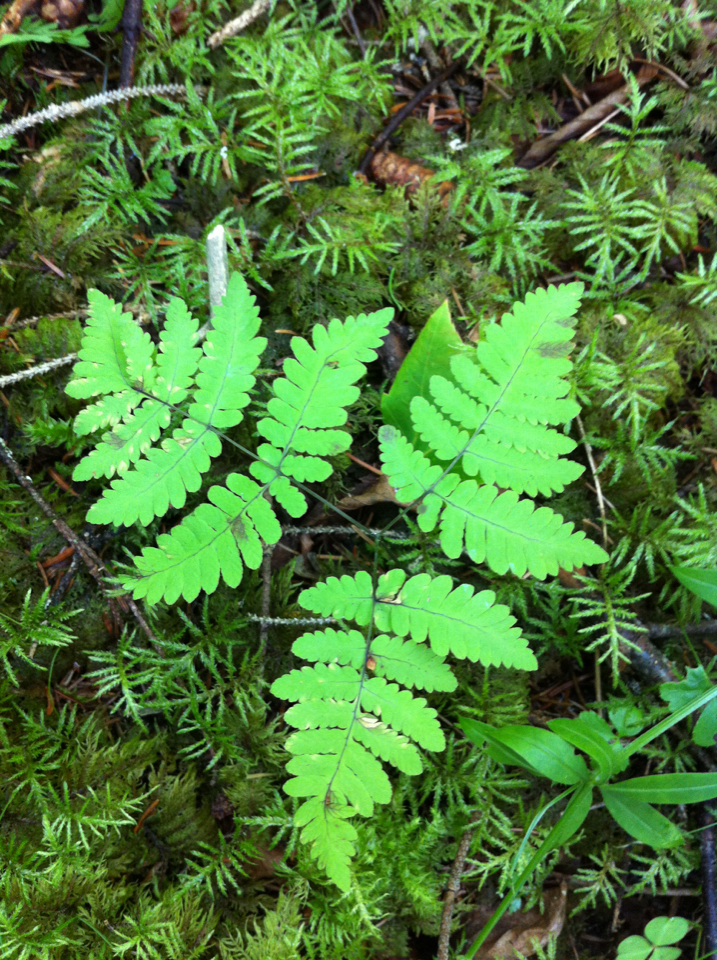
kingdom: Plantae
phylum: Tracheophyta
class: Polypodiopsida
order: Polypodiales
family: Cystopteridaceae
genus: Gymnocarpium
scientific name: Gymnocarpium dryopteris
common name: Oak fern
